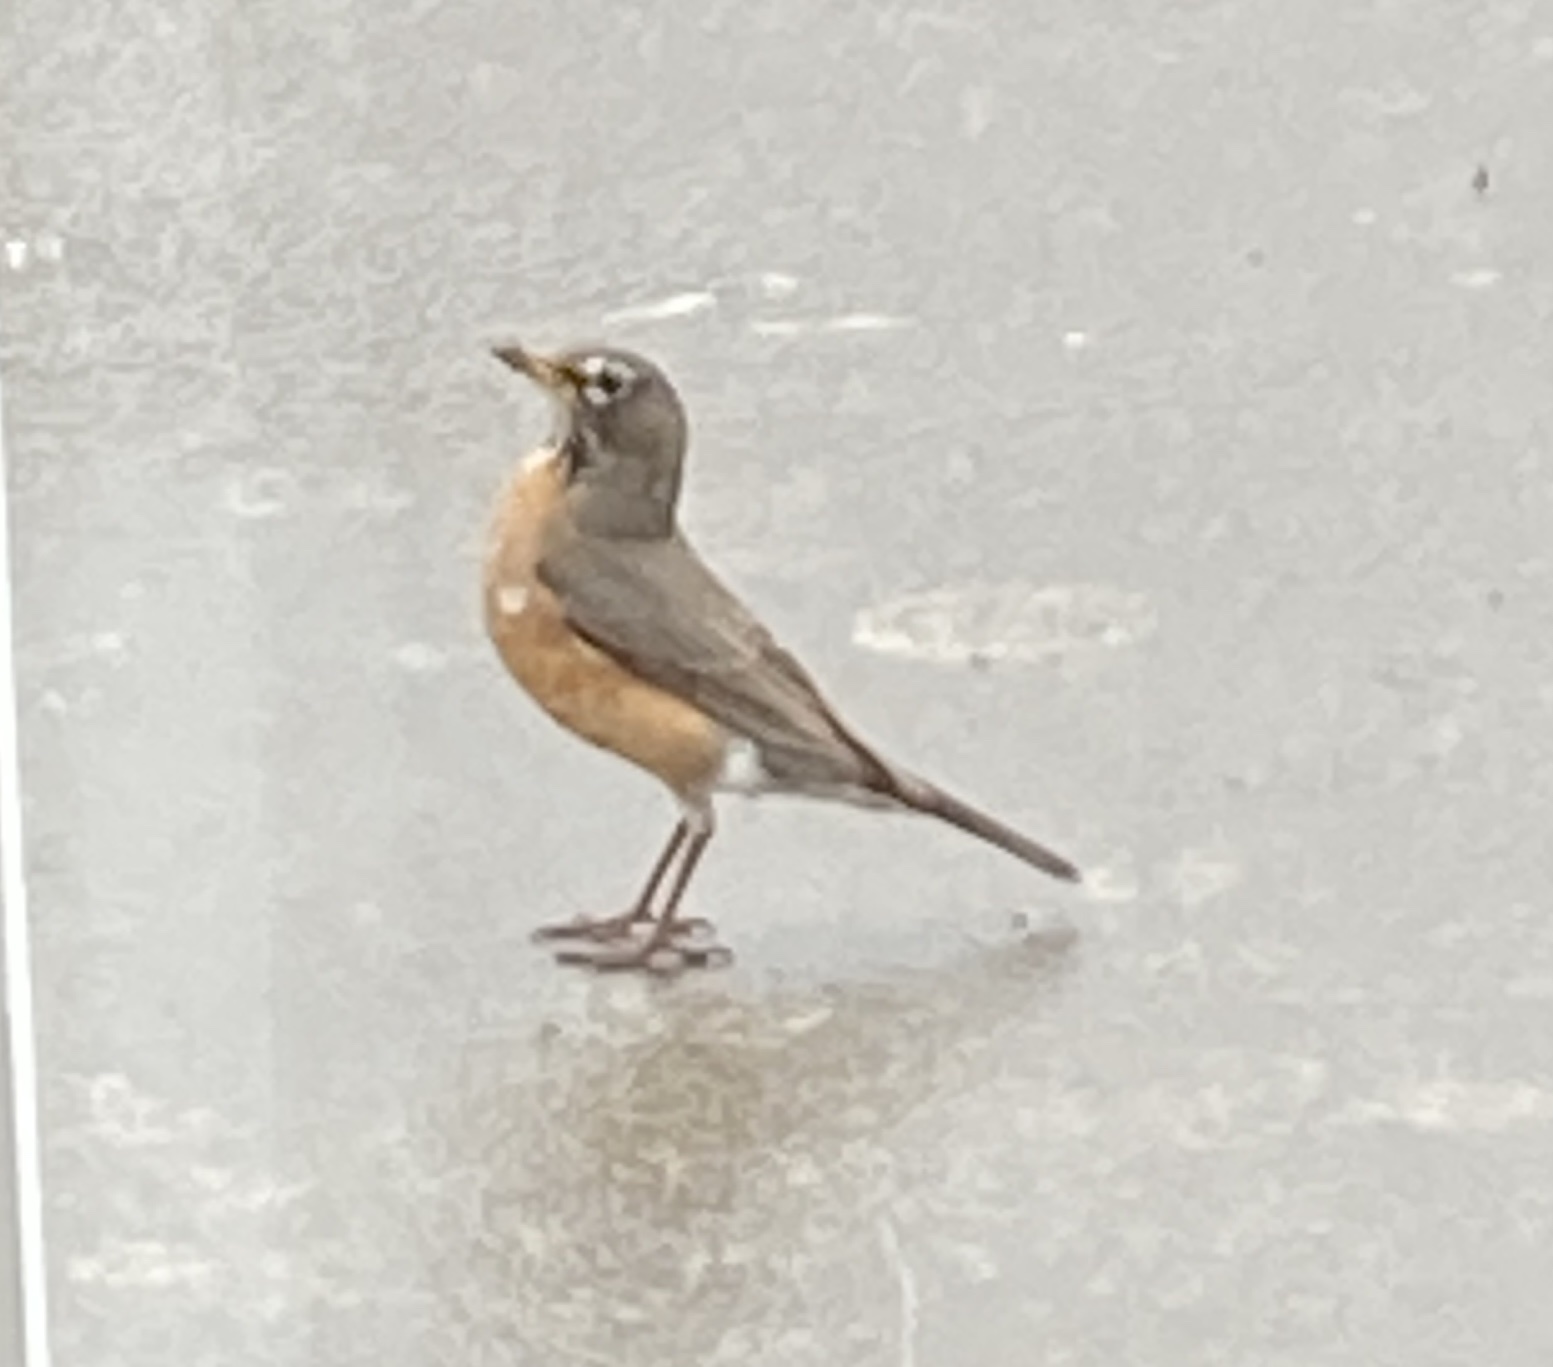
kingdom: Animalia
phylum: Chordata
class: Aves
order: Passeriformes
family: Turdidae
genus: Turdus
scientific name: Turdus migratorius
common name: American robin
